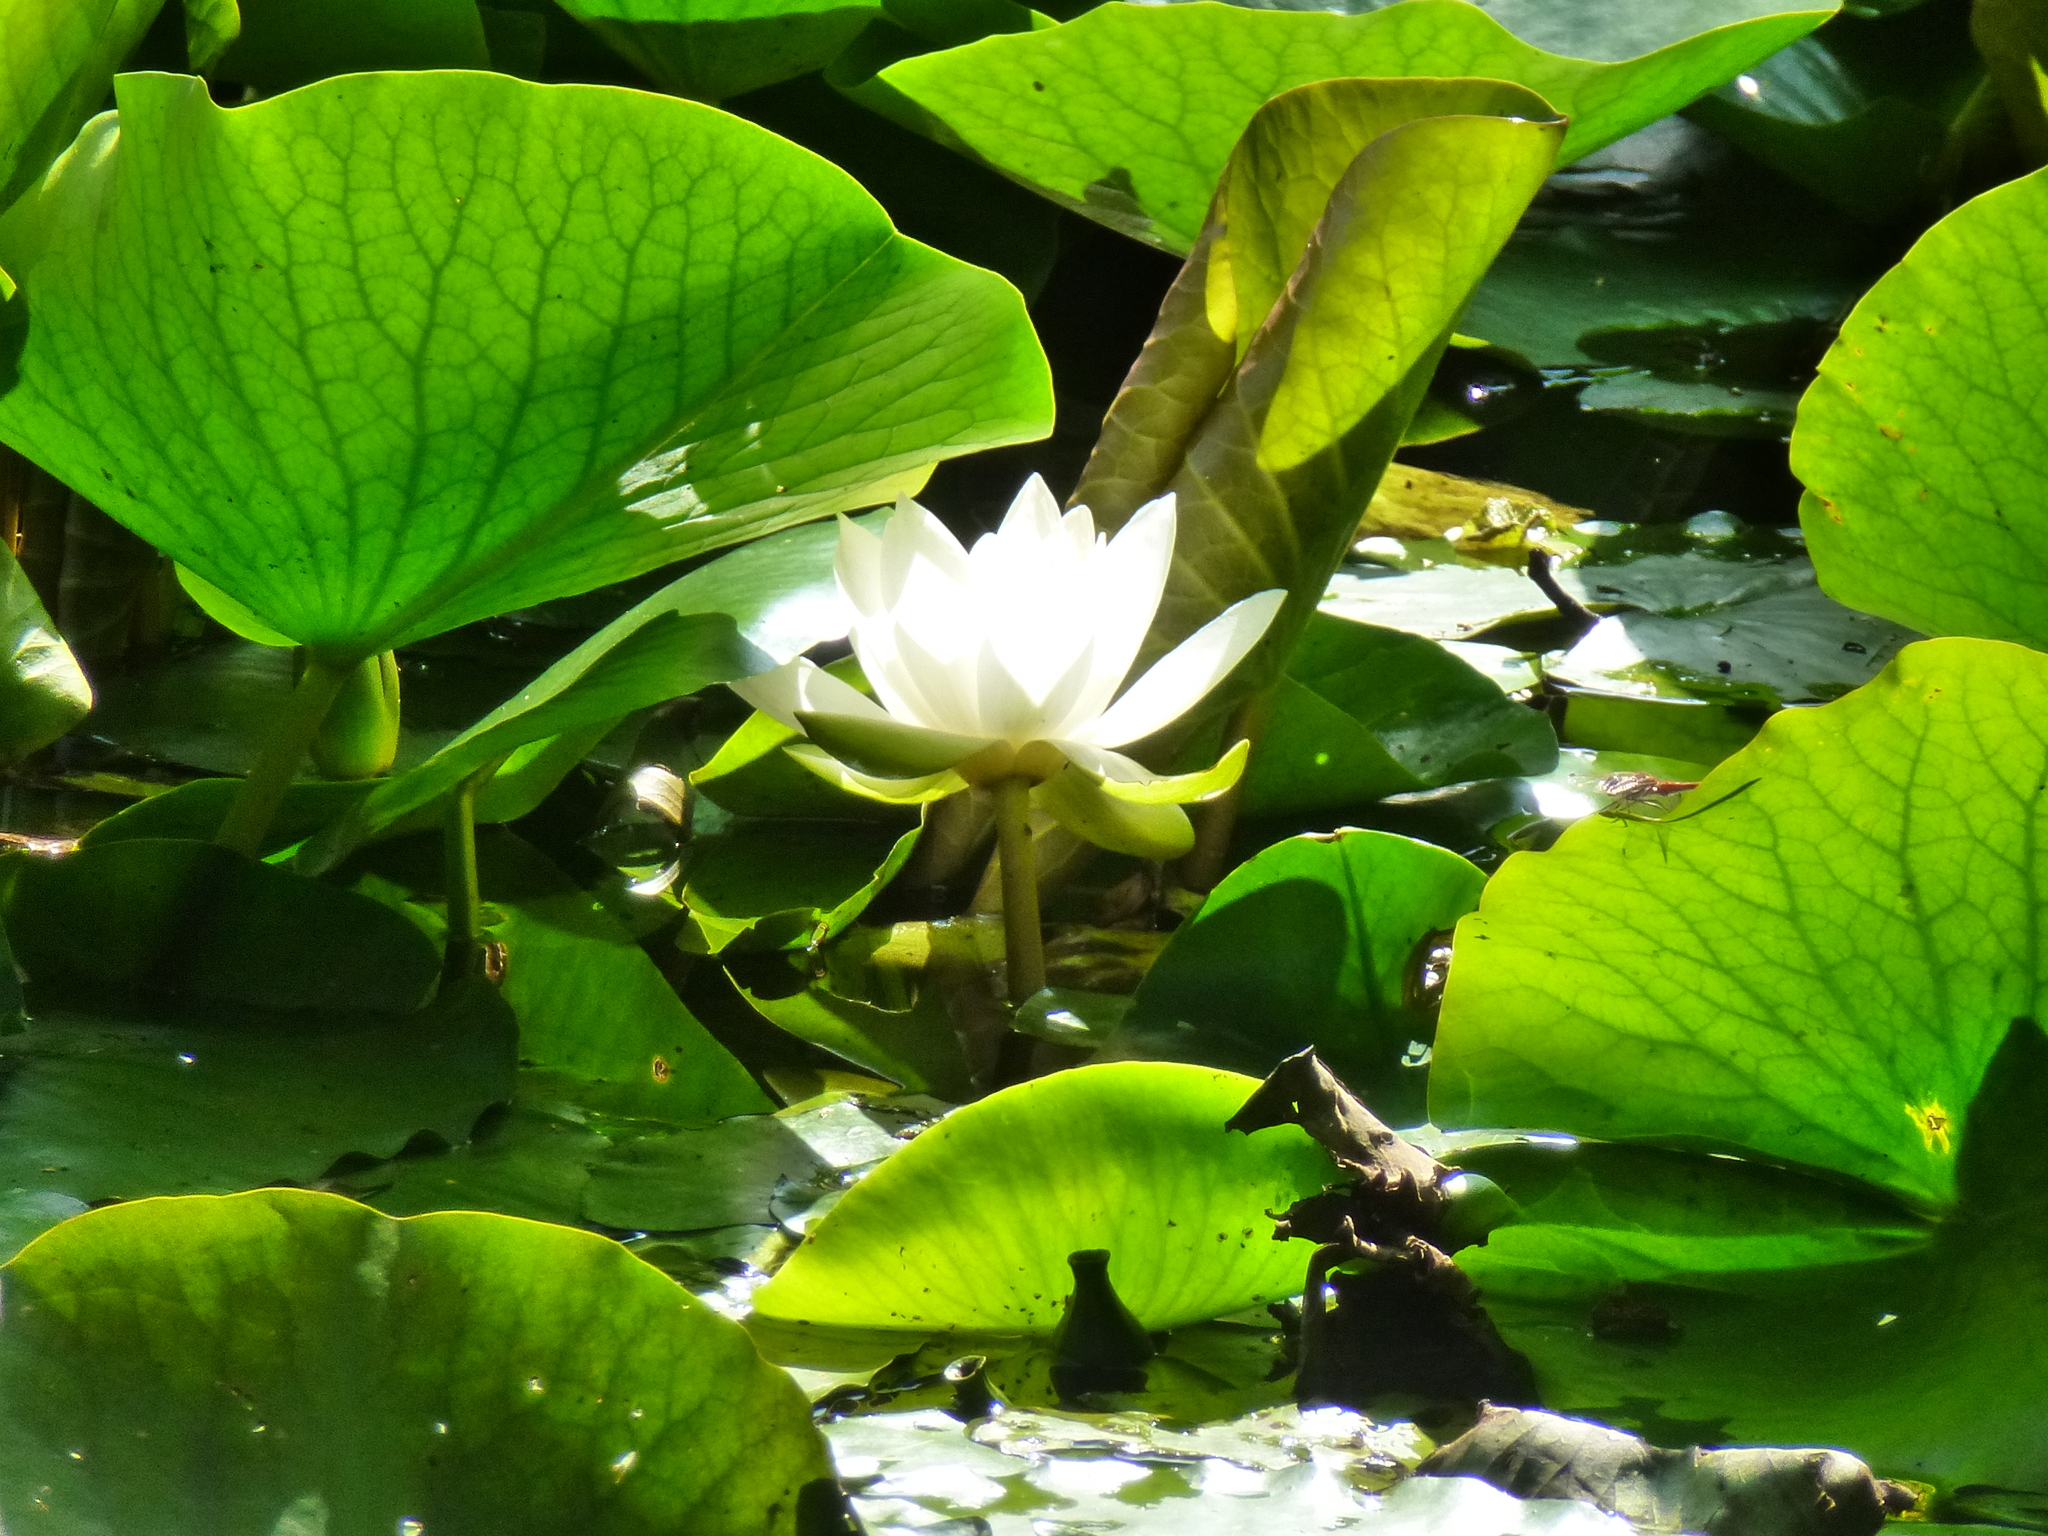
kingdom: Plantae
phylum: Tracheophyta
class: Magnoliopsida
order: Nymphaeales
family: Nymphaeaceae
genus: Nymphaea
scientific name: Nymphaea alba
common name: White water-lily
